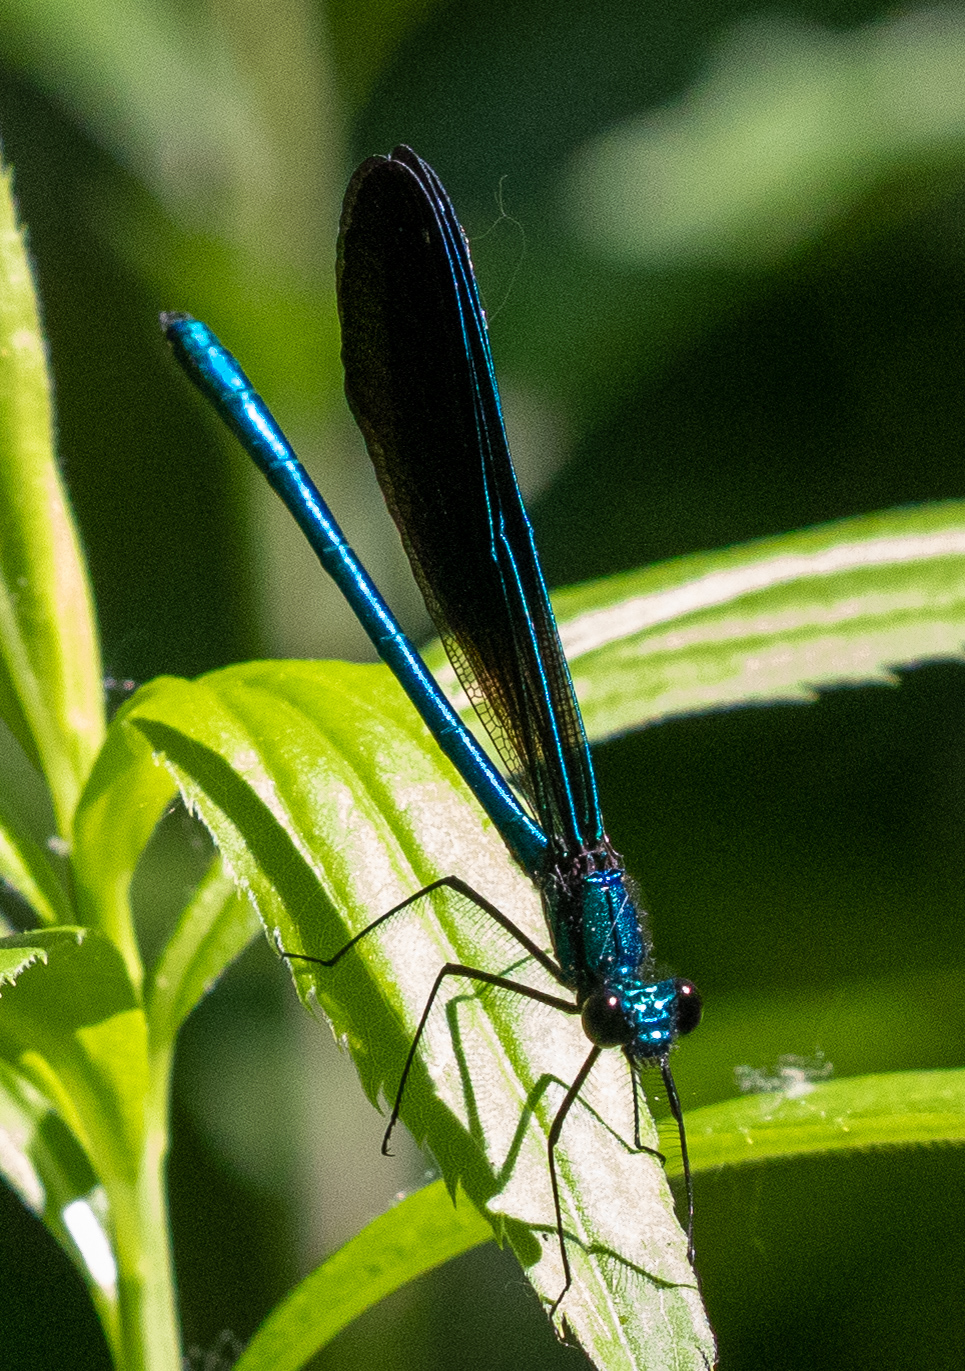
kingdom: Animalia
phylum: Arthropoda
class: Insecta
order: Odonata
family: Calopterygidae
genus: Calopteryx
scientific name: Calopteryx maculata
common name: Ebony jewelwing
